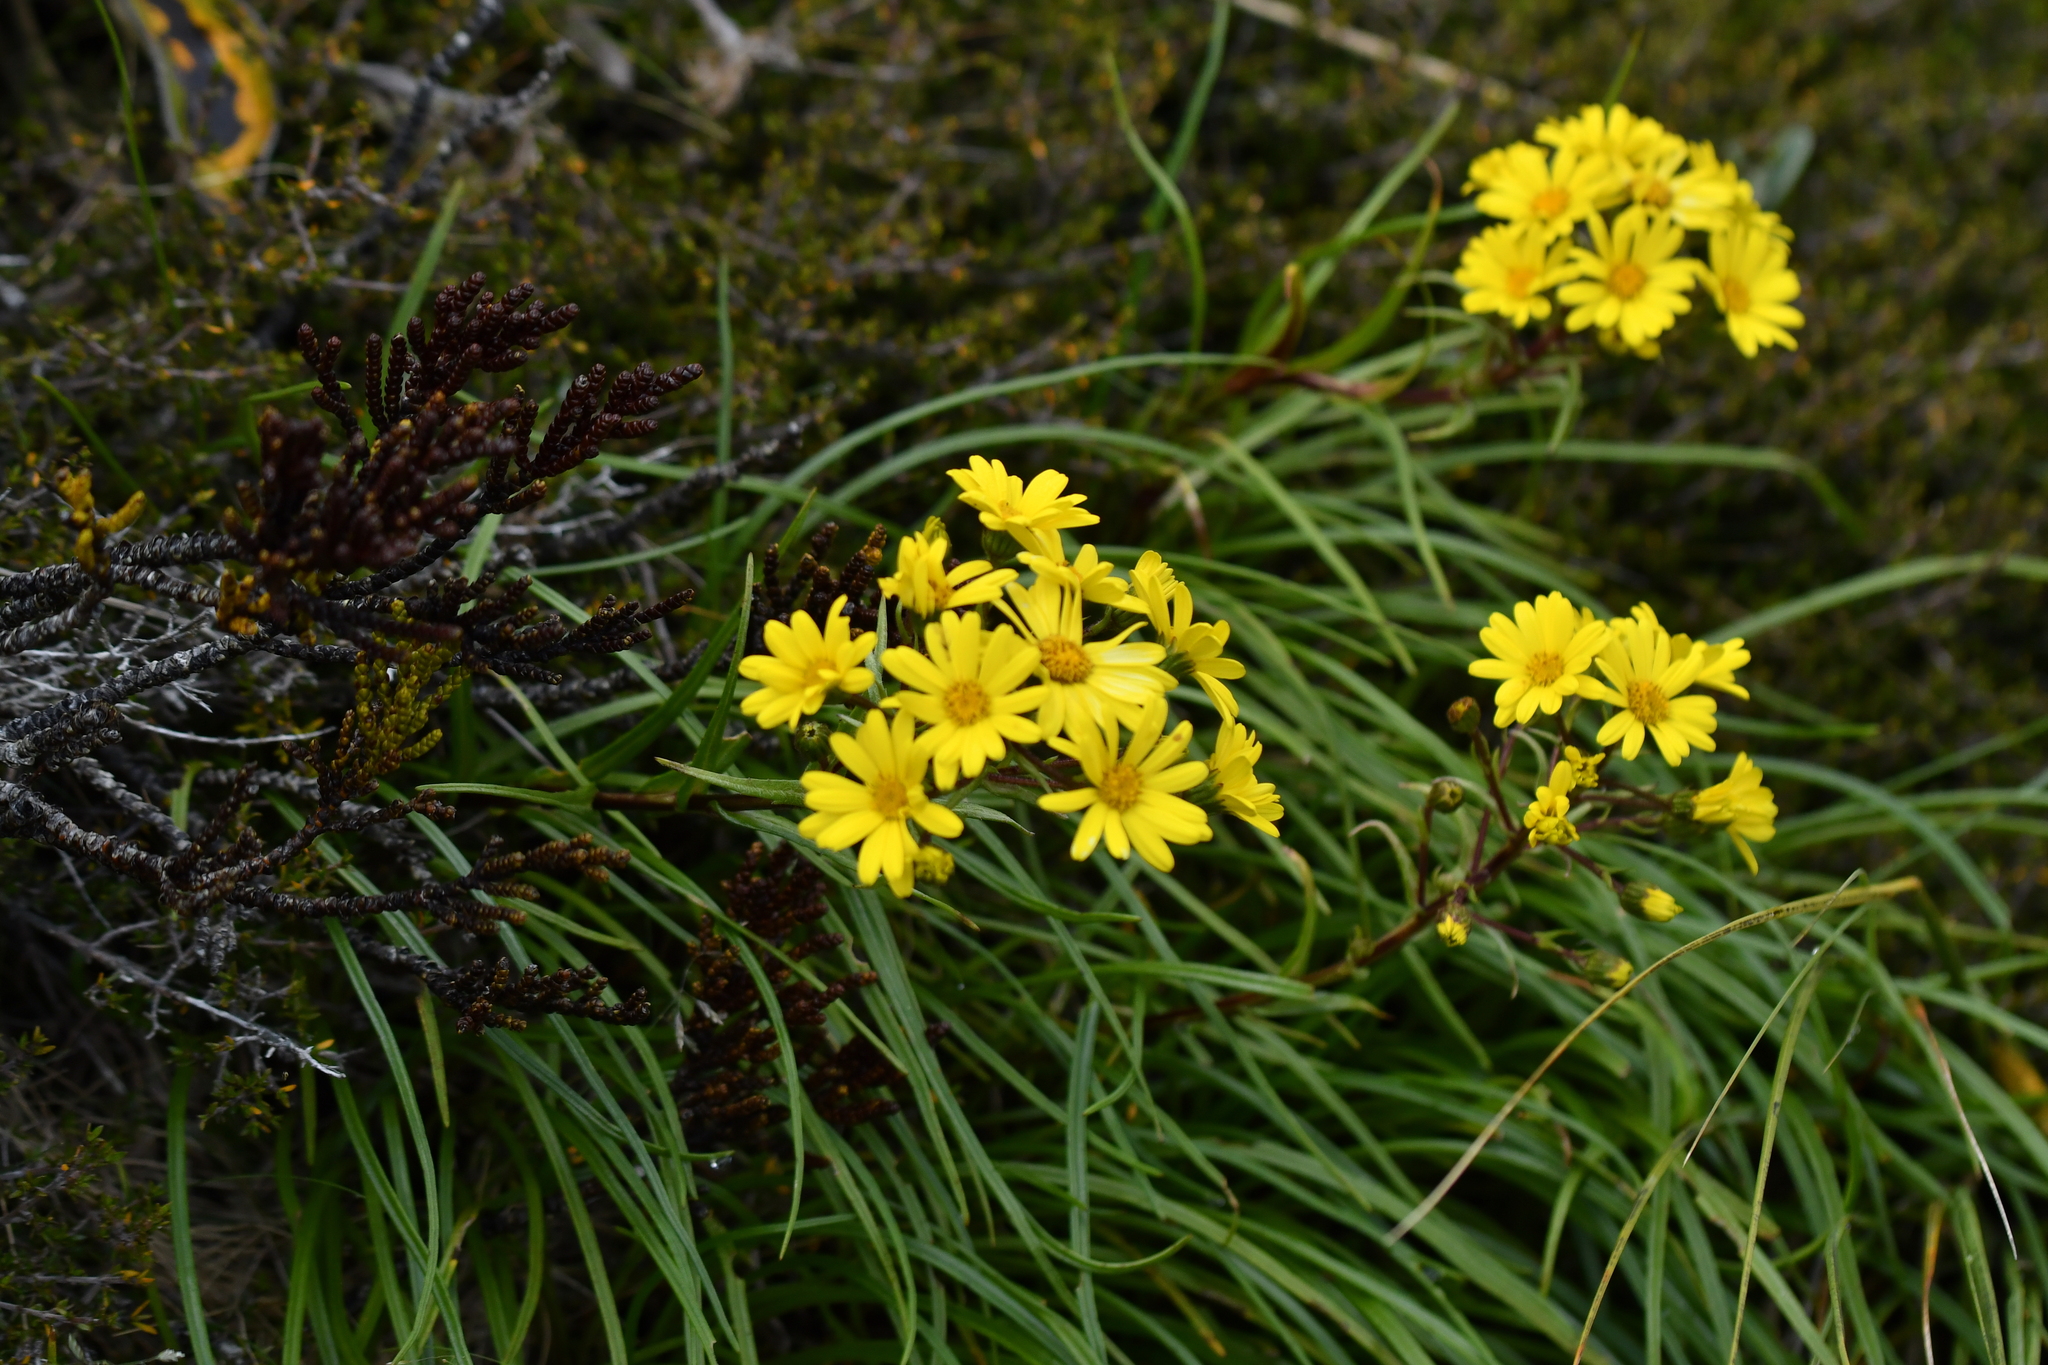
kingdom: Plantae
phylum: Tracheophyta
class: Magnoliopsida
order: Asterales
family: Asteraceae
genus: Dolichoglottis
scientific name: Dolichoglottis lyallii
